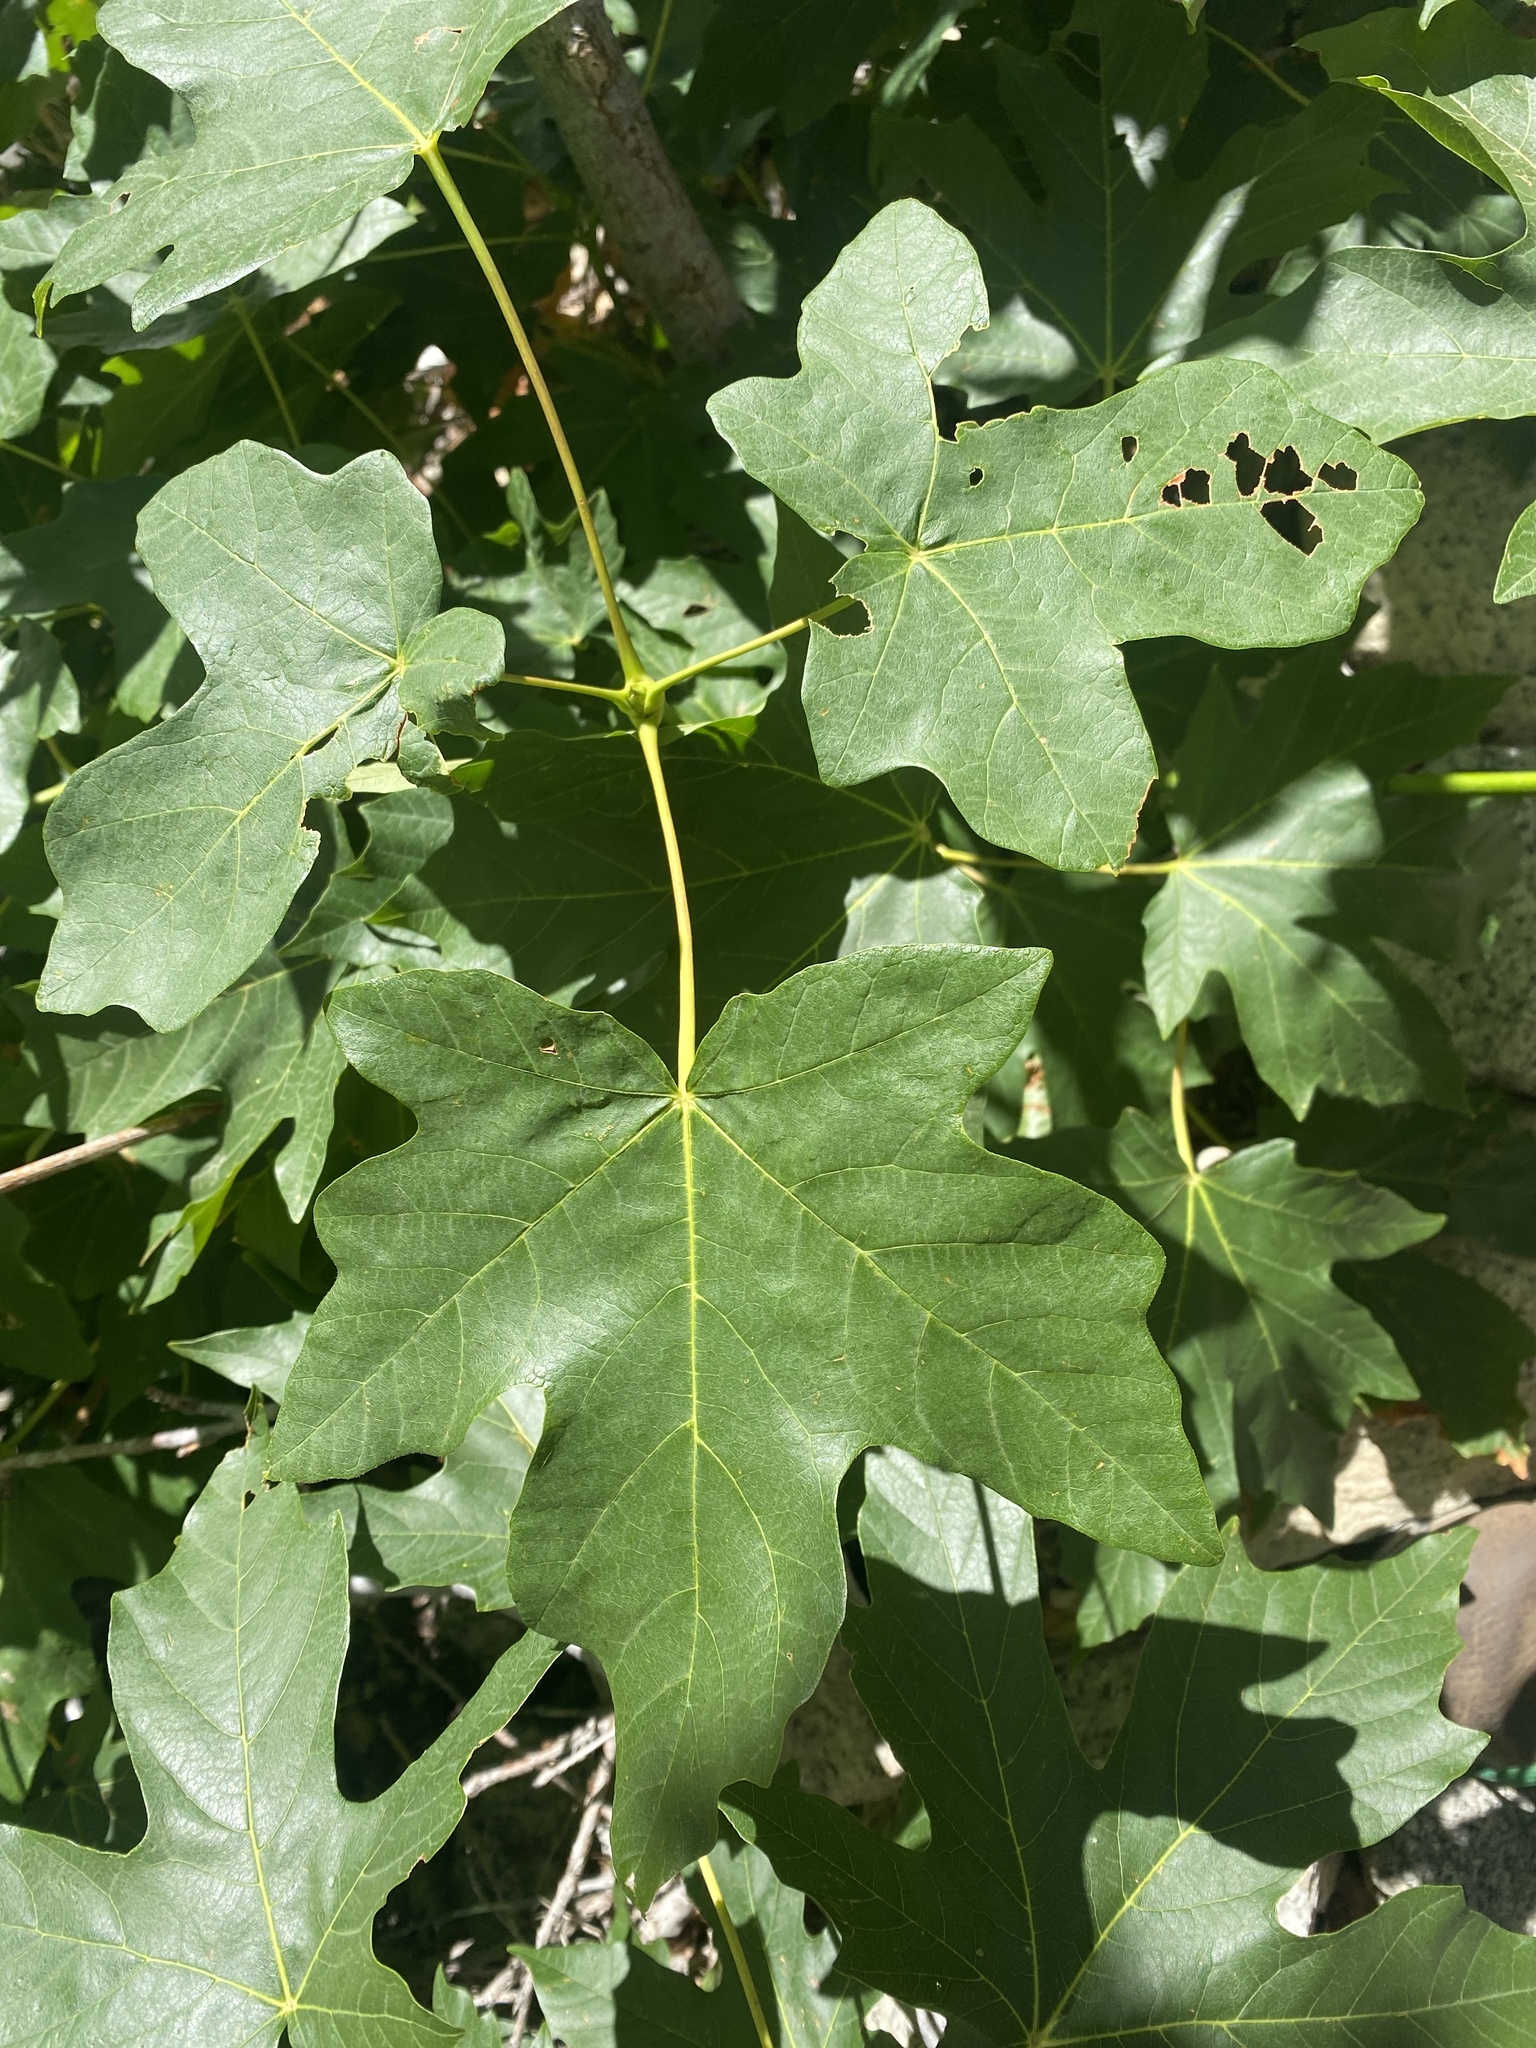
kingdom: Plantae
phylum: Tracheophyta
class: Magnoliopsida
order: Sapindales
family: Sapindaceae
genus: Acer
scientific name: Acer macrophyllum
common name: Oregon maple
